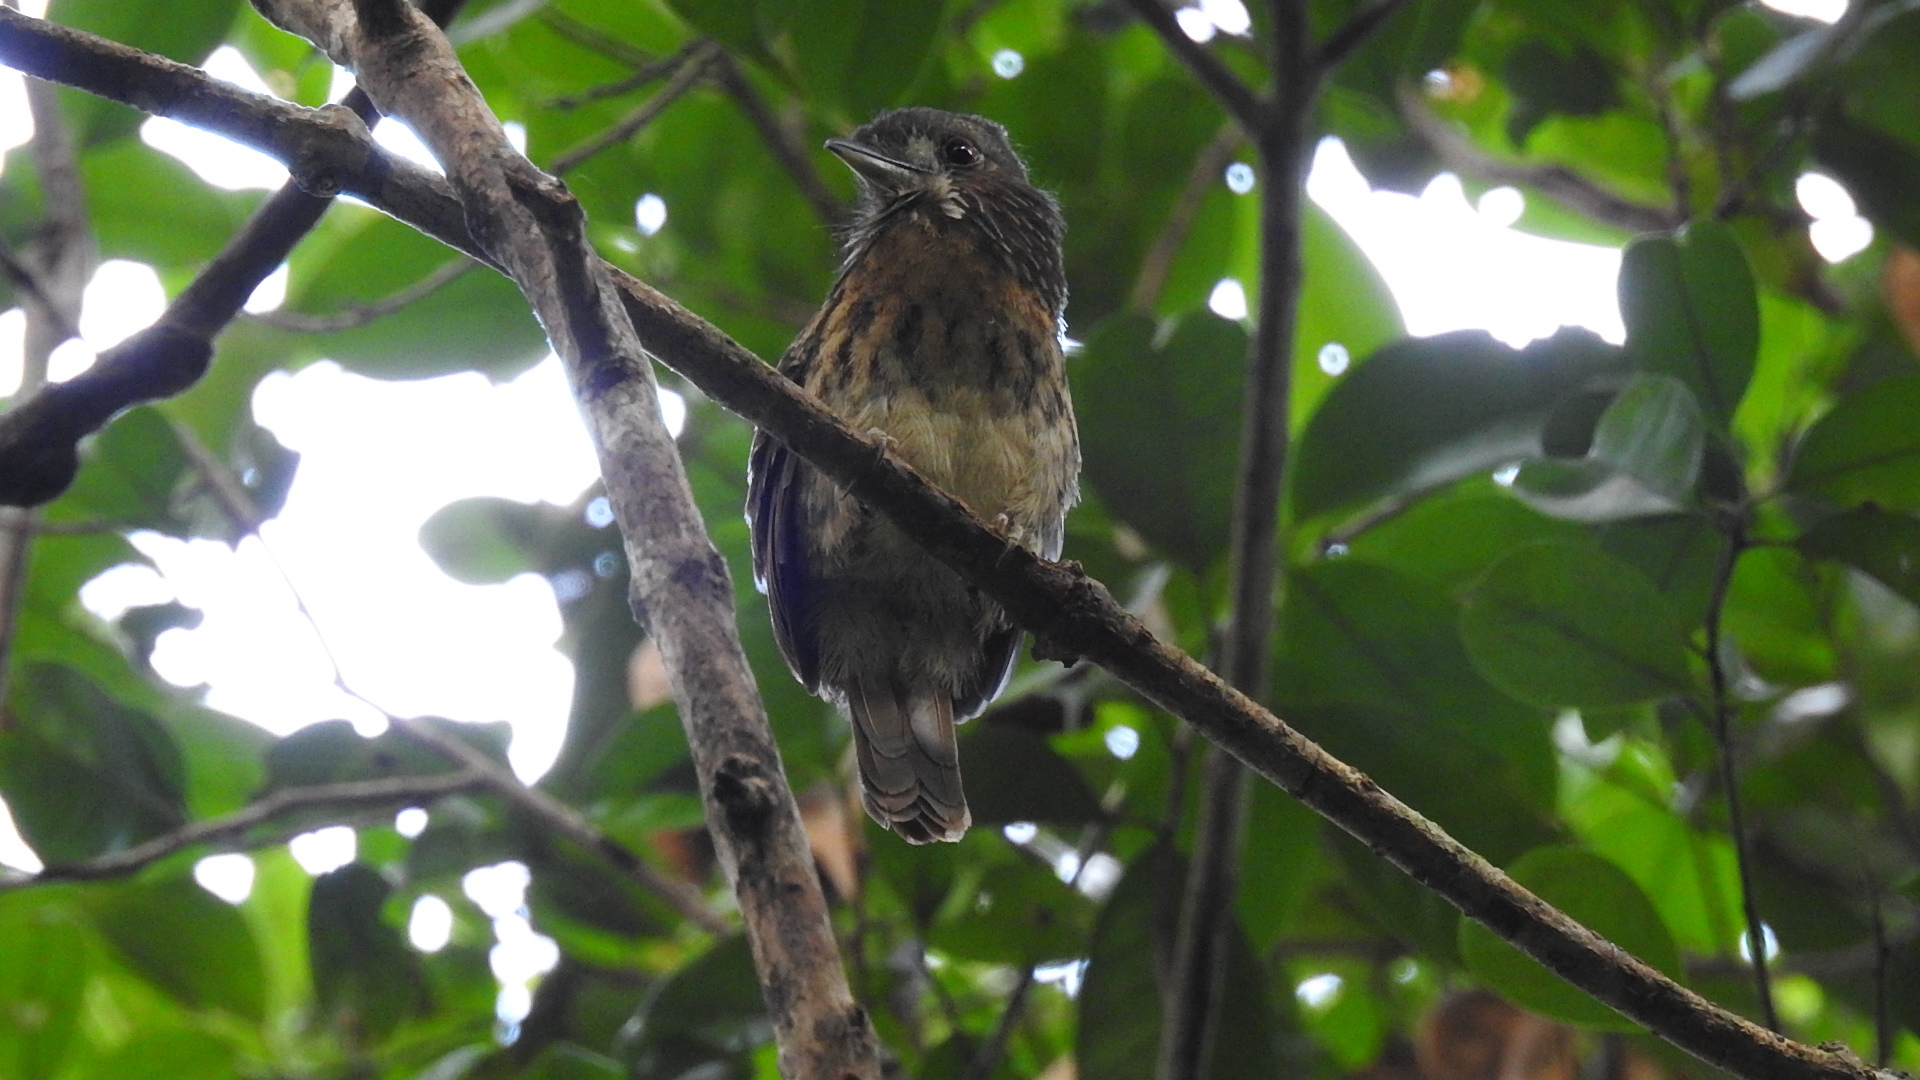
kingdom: Animalia
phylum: Chordata
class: Aves
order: Piciformes
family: Bucconidae
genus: Malacoptila
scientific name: Malacoptila panamensis
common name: White-whiskered puffbird
